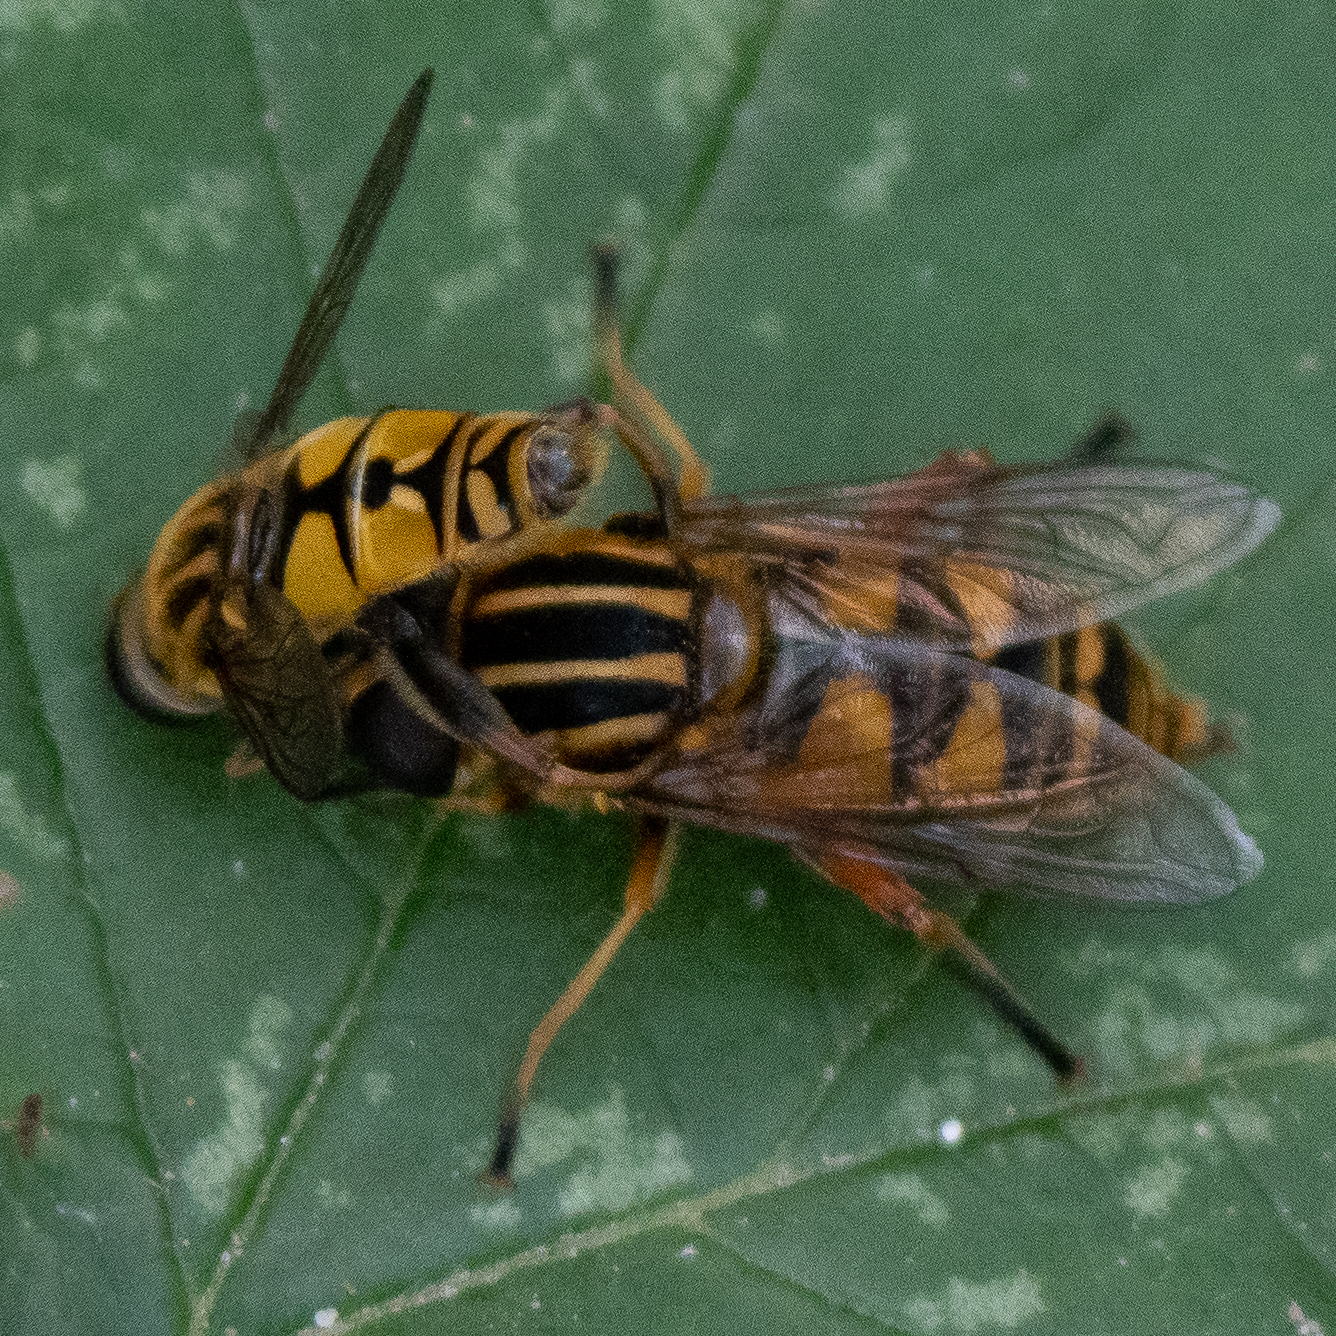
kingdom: Animalia
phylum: Arthropoda
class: Insecta
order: Diptera
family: Syrphidae
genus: Helophilus
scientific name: Helophilus pendulus
